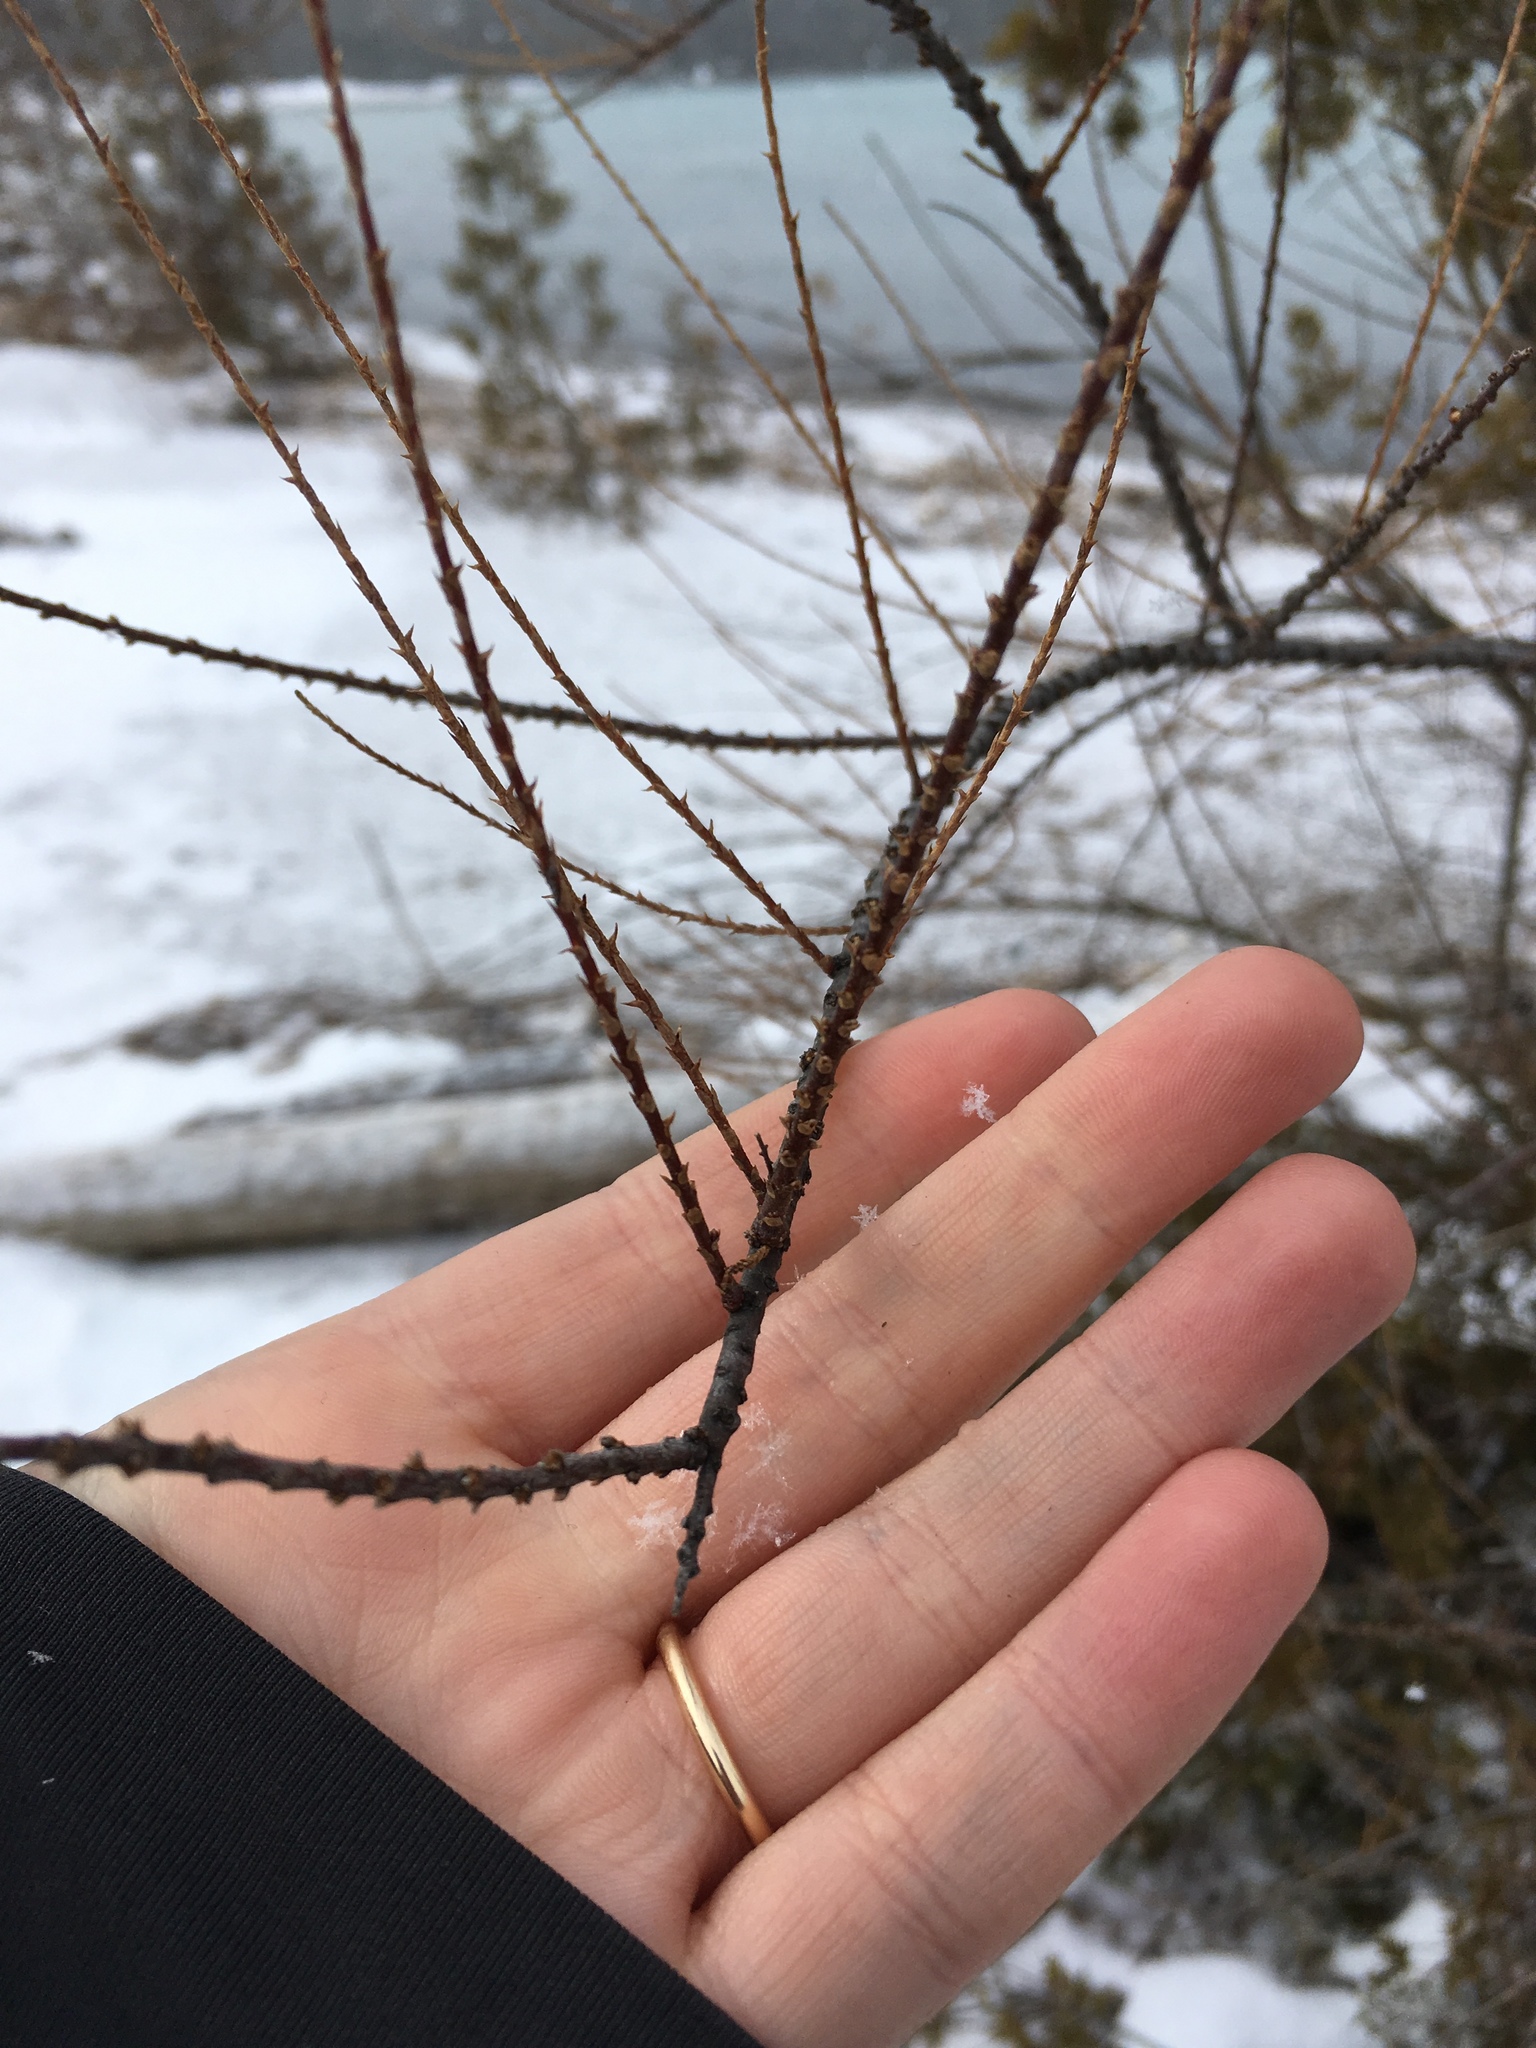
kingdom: Plantae
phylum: Tracheophyta
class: Magnoliopsida
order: Caryophyllales
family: Tamaricaceae
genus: Tamarix
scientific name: Tamarix parviflora
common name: Smallflower tamarisk
